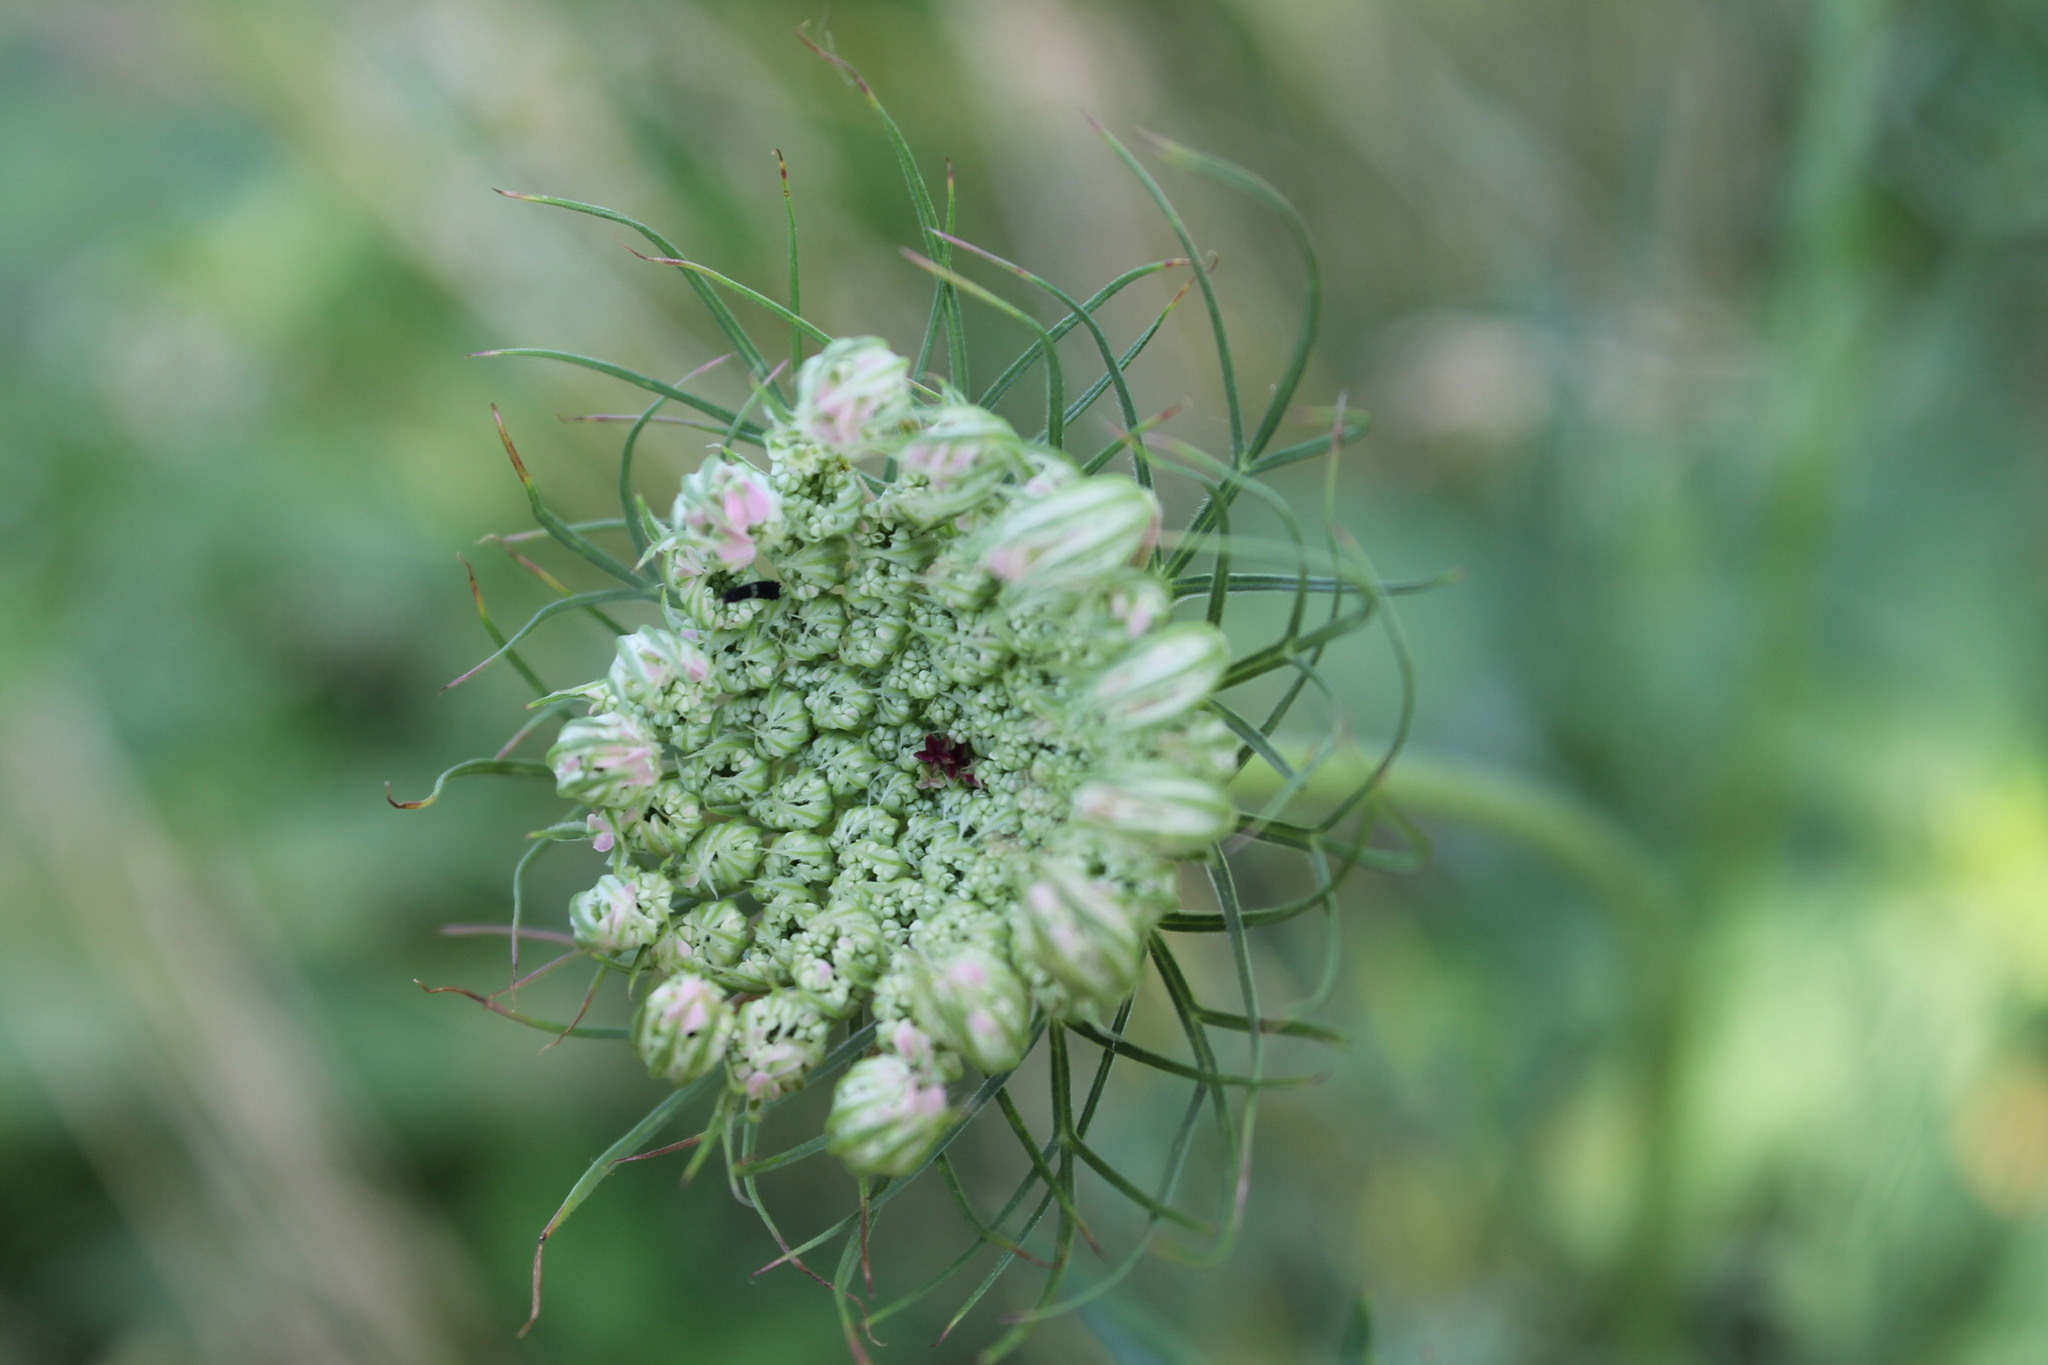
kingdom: Plantae
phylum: Tracheophyta
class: Magnoliopsida
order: Apiales
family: Apiaceae
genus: Daucus
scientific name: Daucus carota
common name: Wild carrot
